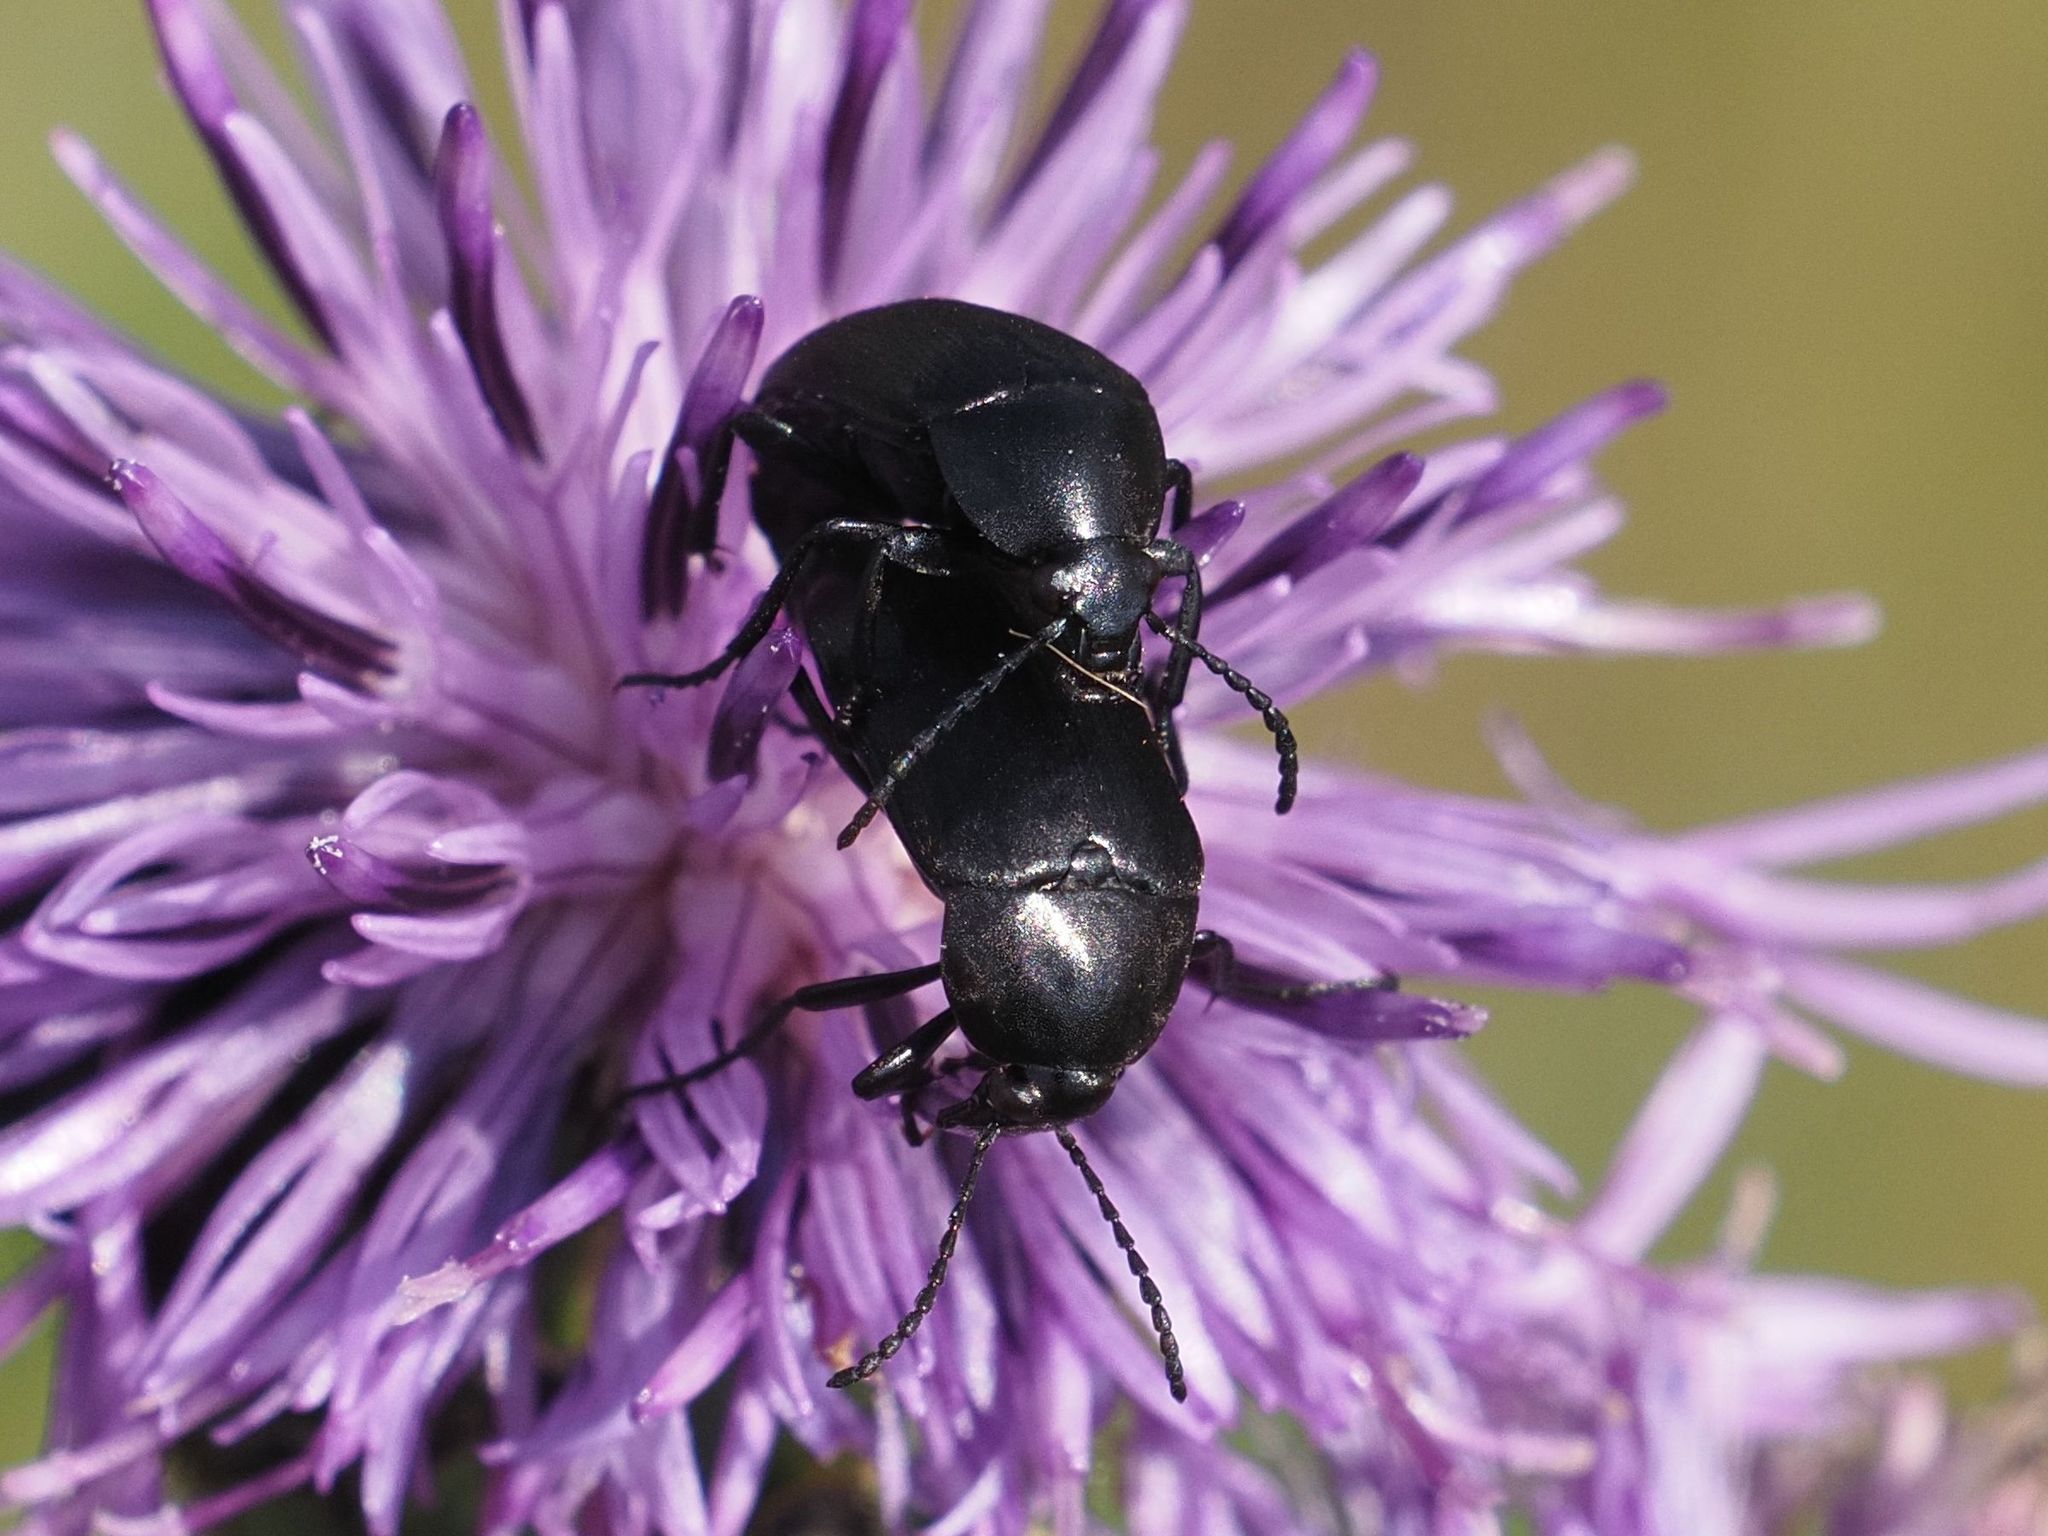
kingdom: Animalia
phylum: Arthropoda
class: Insecta
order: Coleoptera
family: Tenebrionidae
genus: Podonta
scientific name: Podonta nigrita
